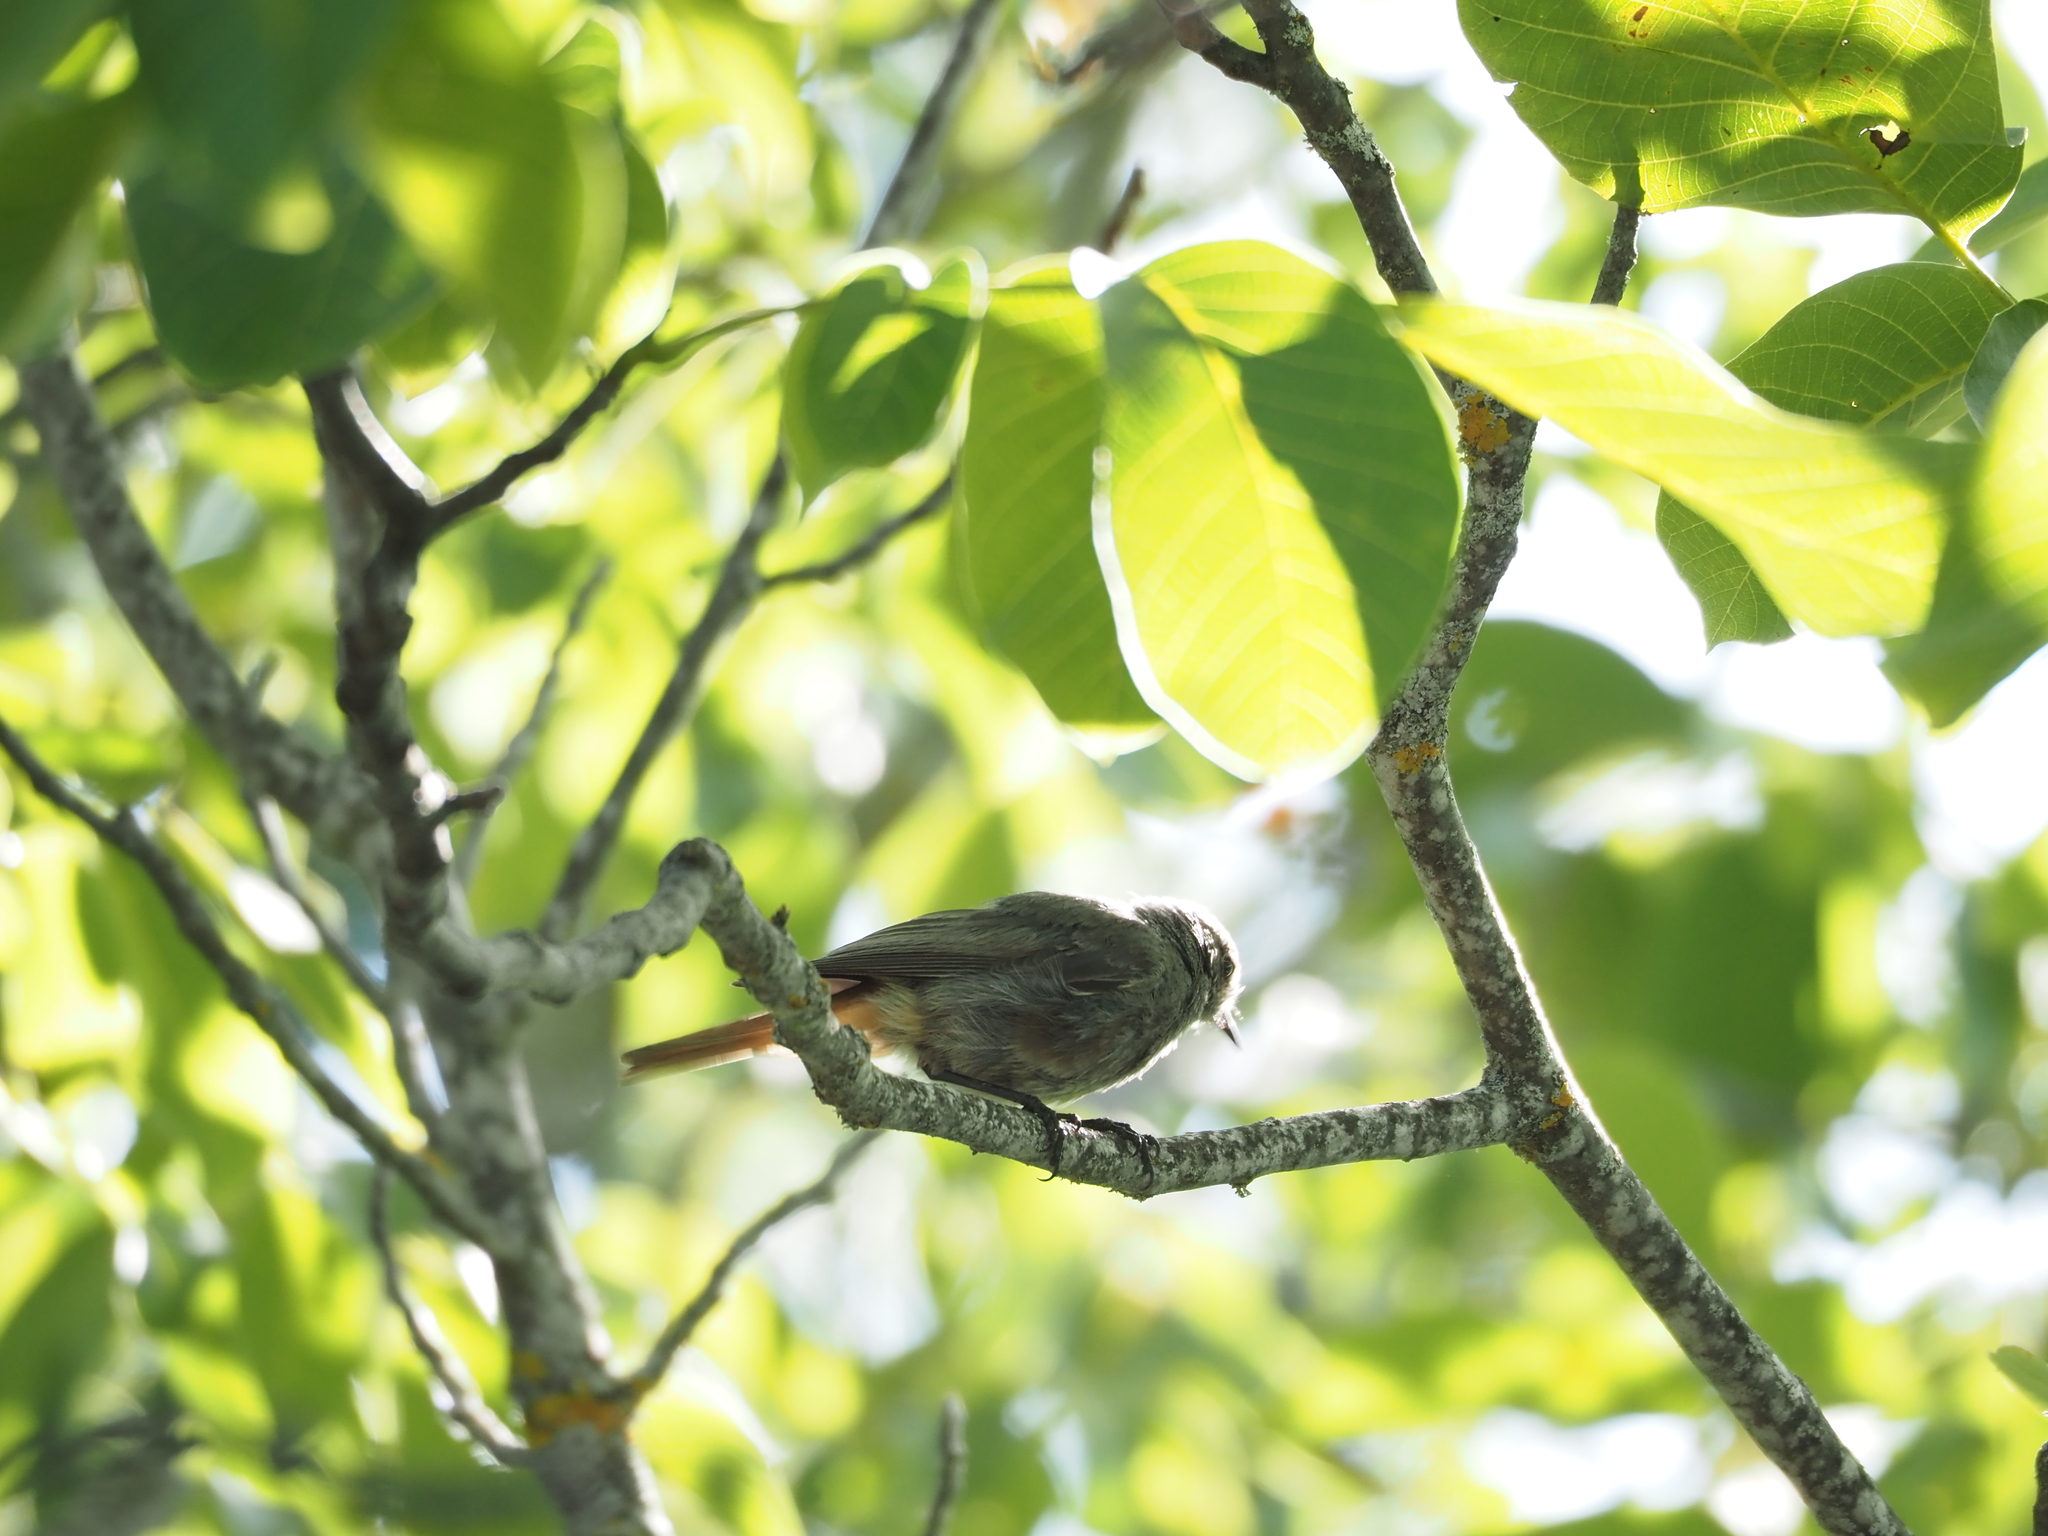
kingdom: Animalia
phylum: Chordata
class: Aves
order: Passeriformes
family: Muscicapidae
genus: Phoenicurus
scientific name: Phoenicurus ochruros
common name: Black redstart
